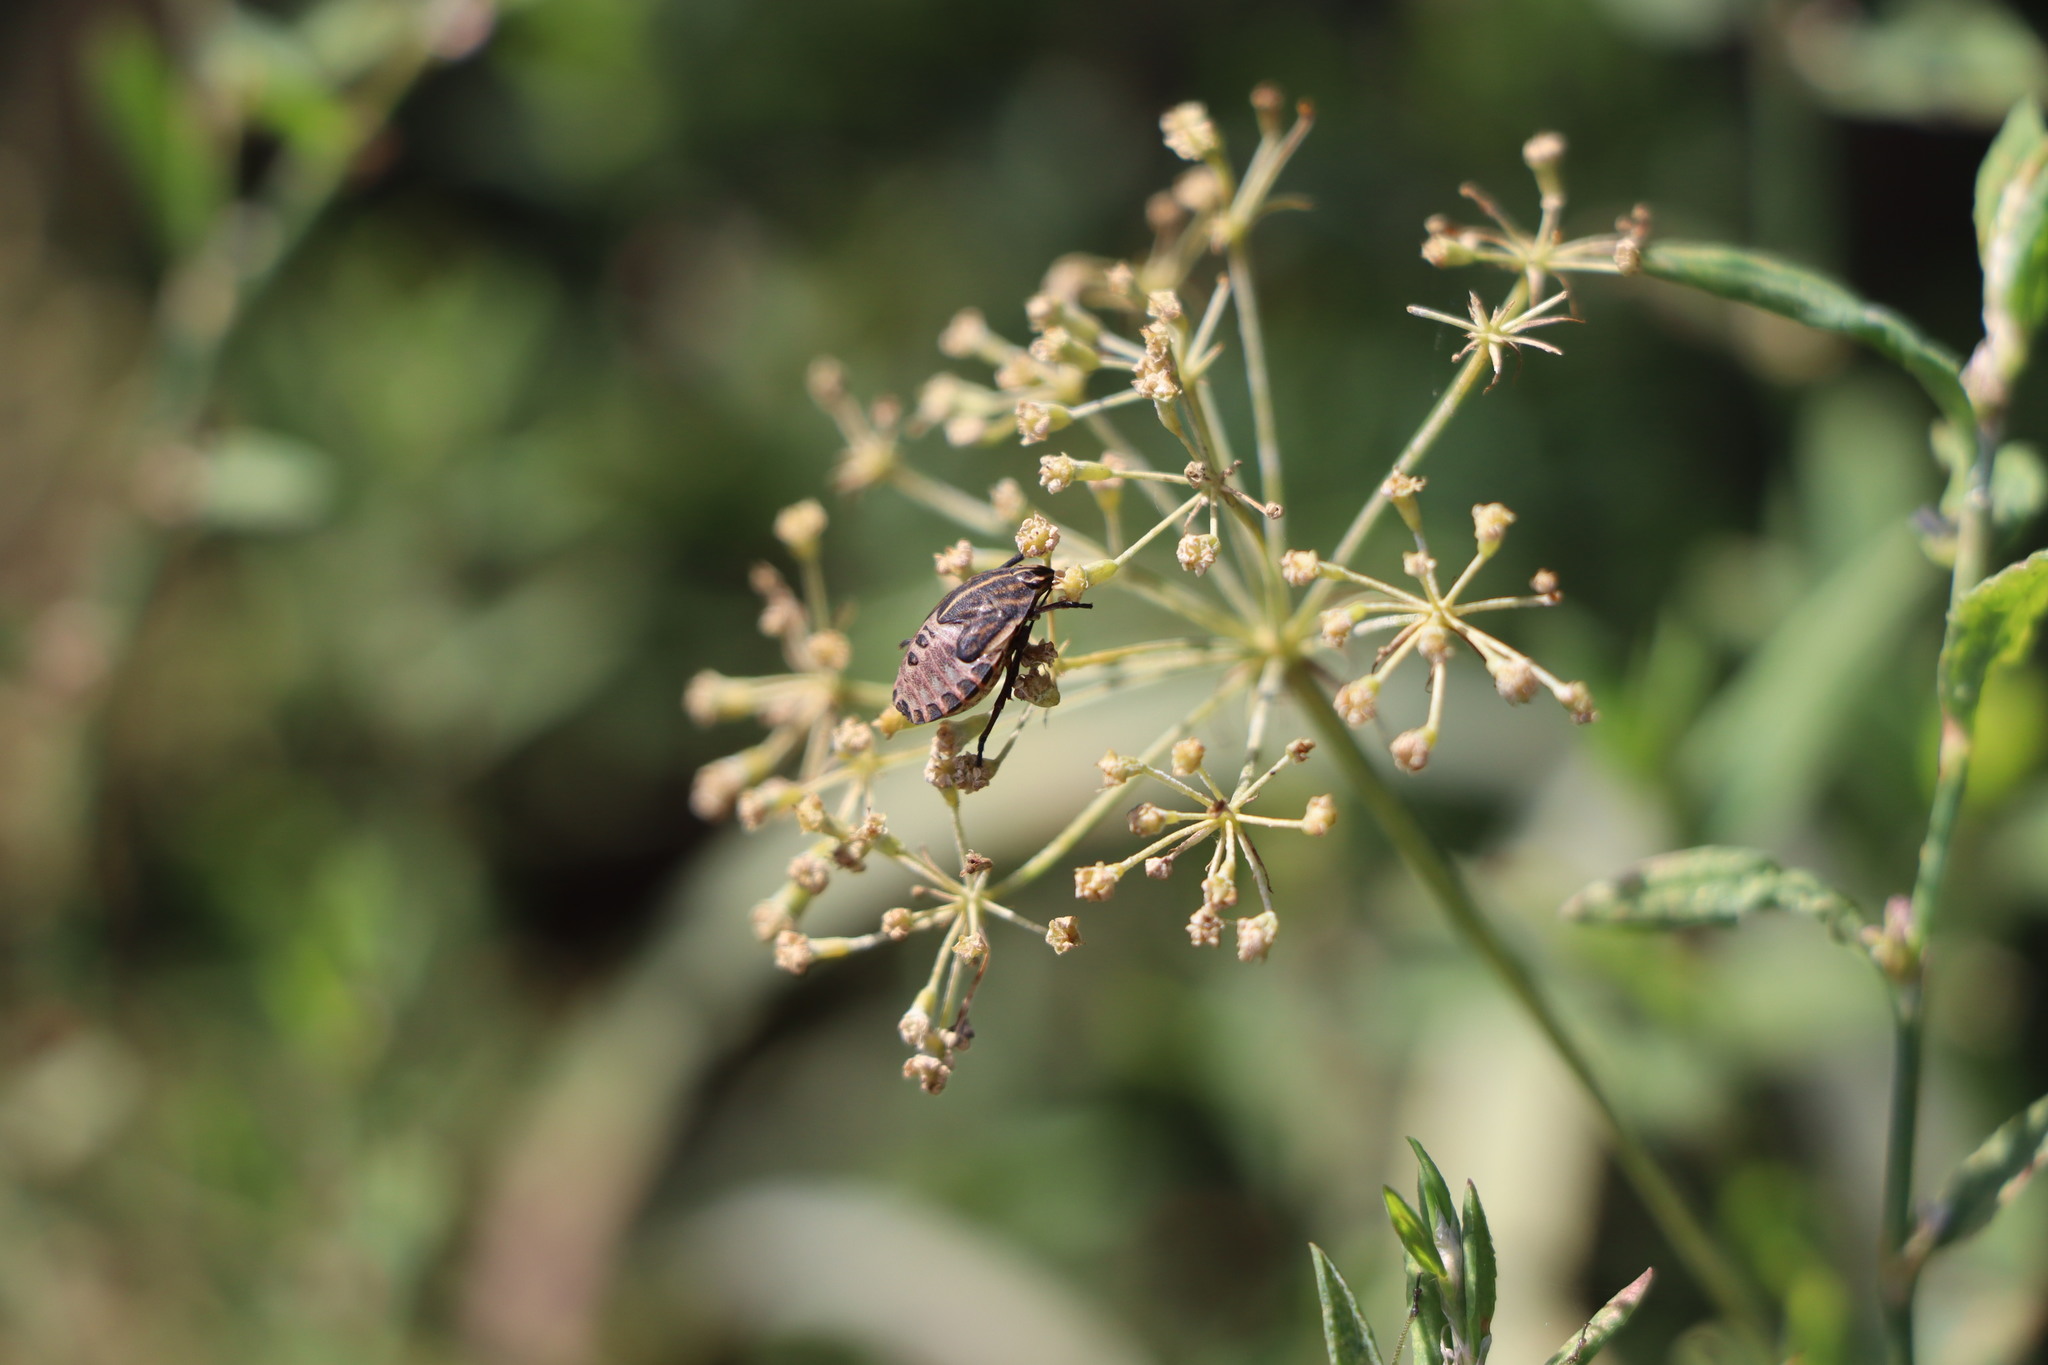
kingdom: Animalia
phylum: Arthropoda
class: Insecta
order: Hemiptera
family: Pentatomidae
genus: Graphosoma
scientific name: Graphosoma italicum
